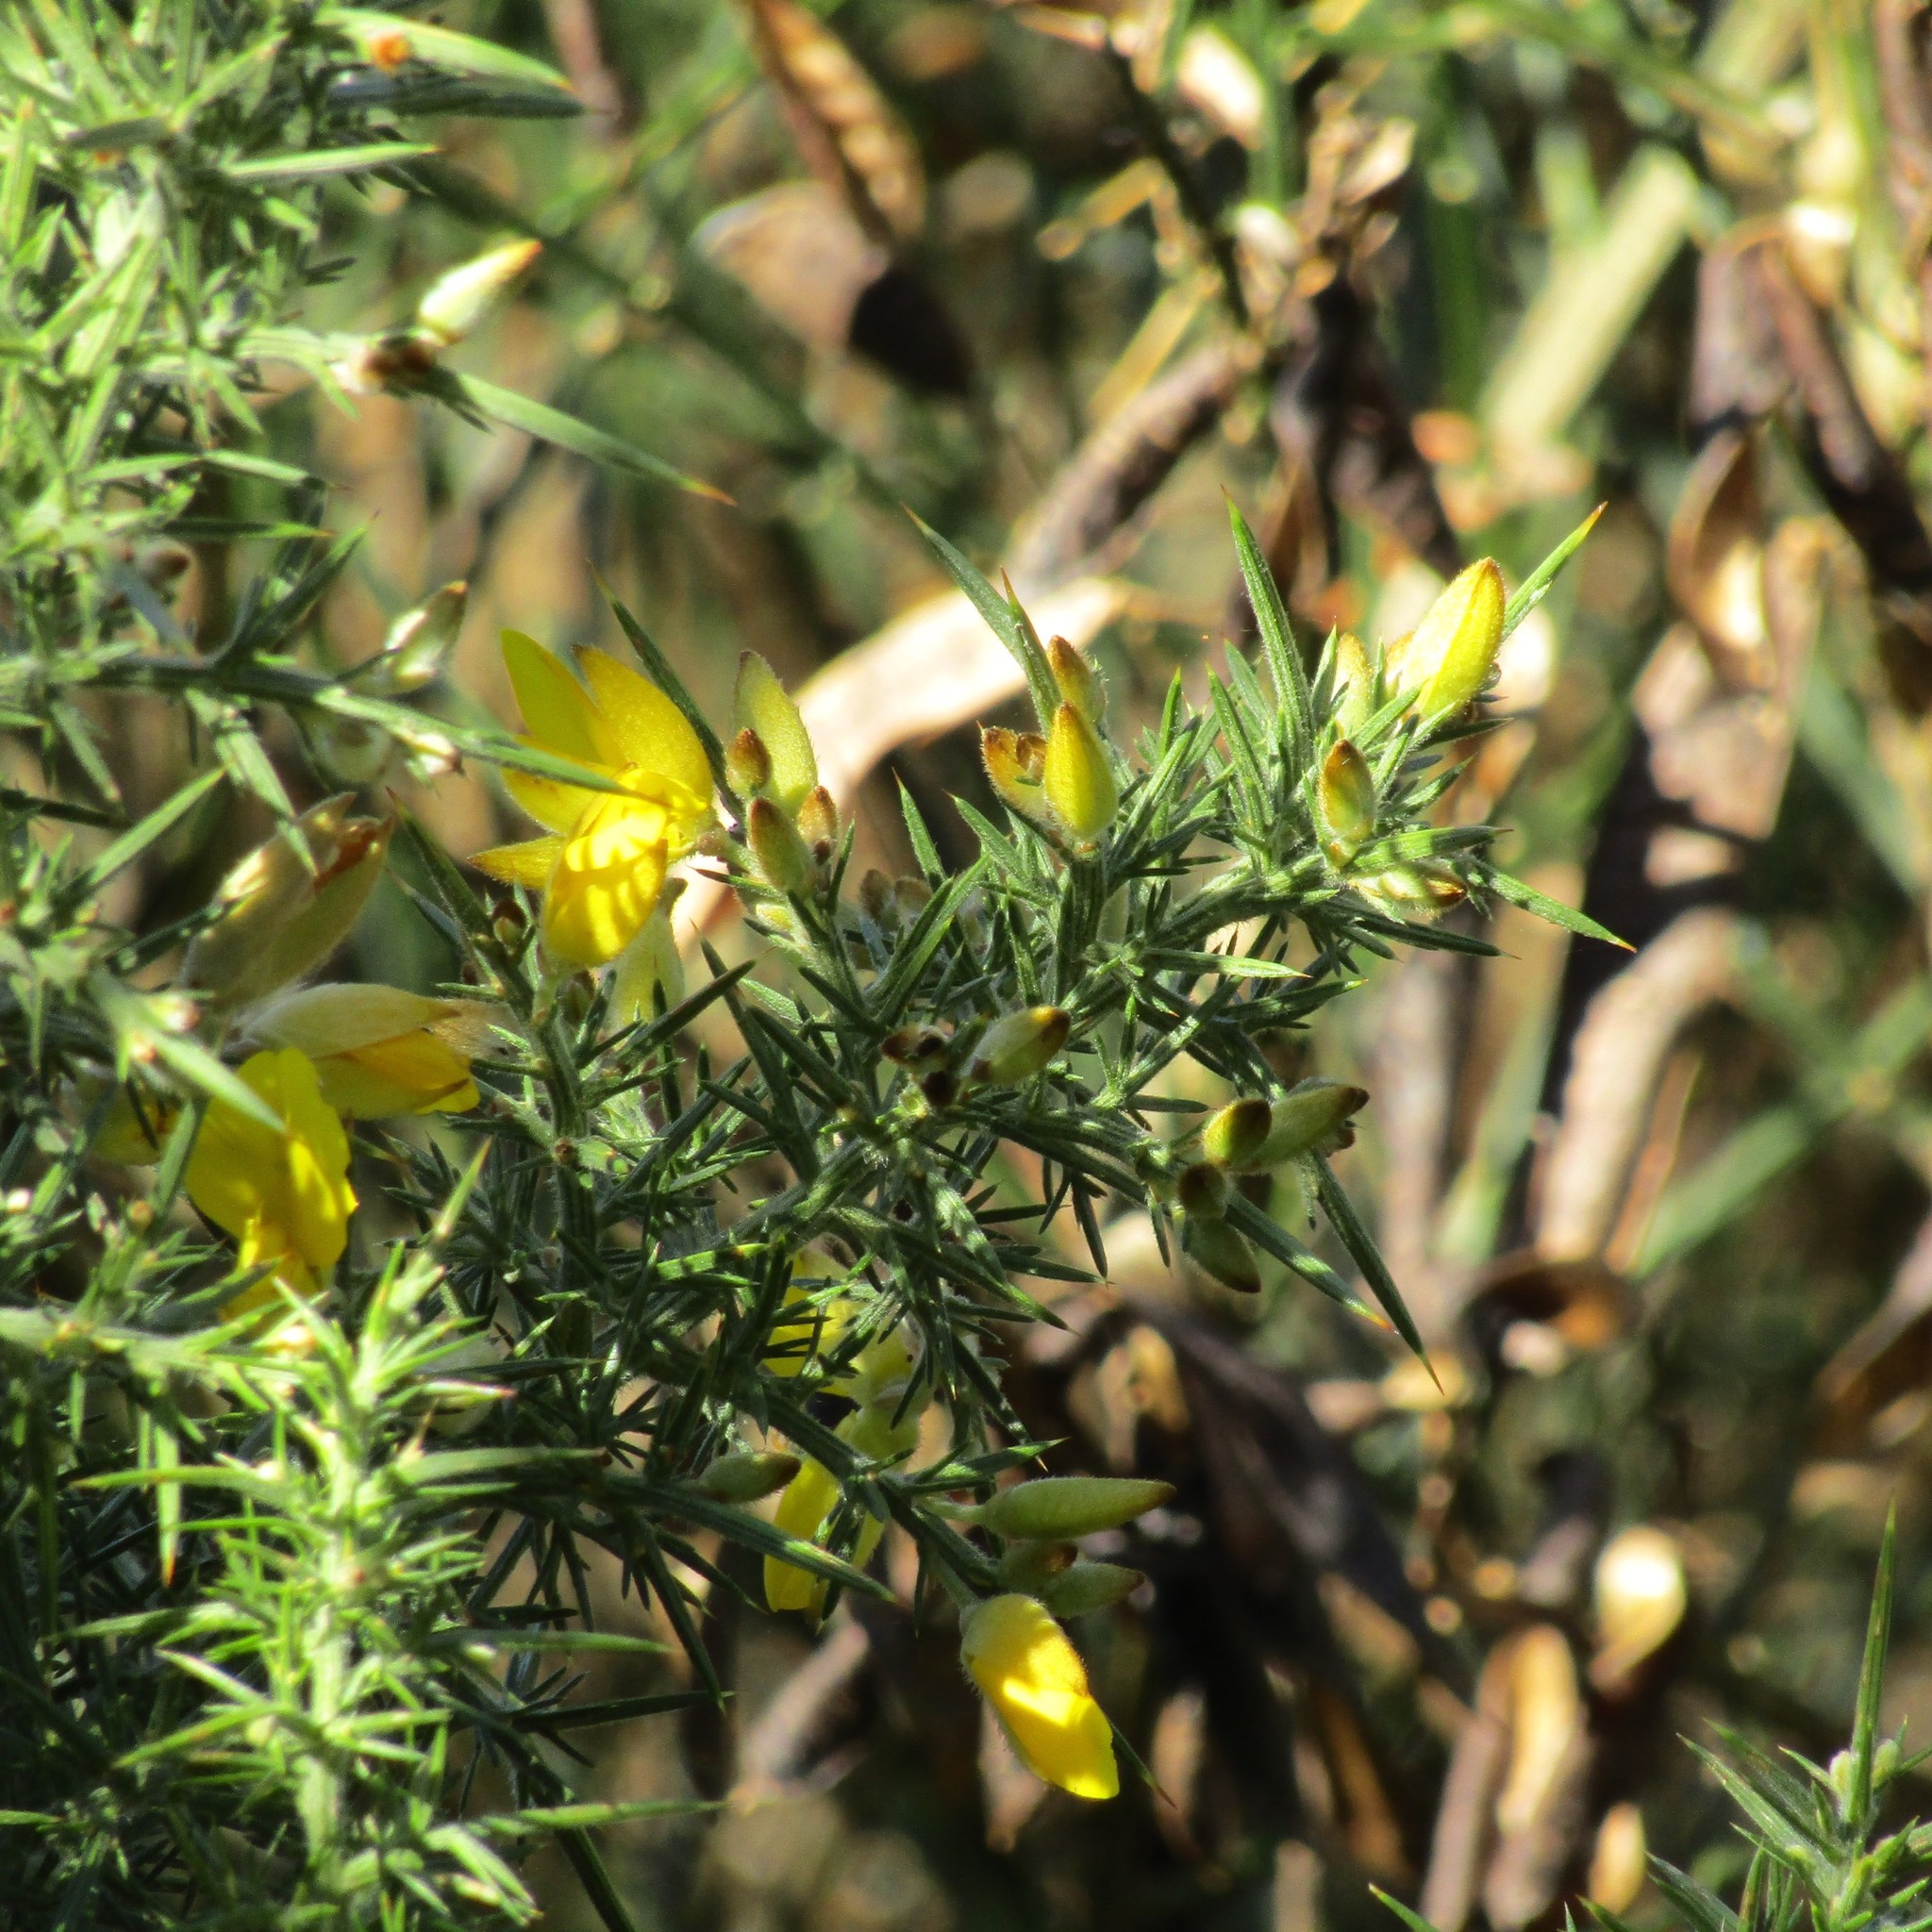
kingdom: Plantae
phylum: Tracheophyta
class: Magnoliopsida
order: Fabales
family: Fabaceae
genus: Ulex
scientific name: Ulex europaeus
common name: Common gorse
